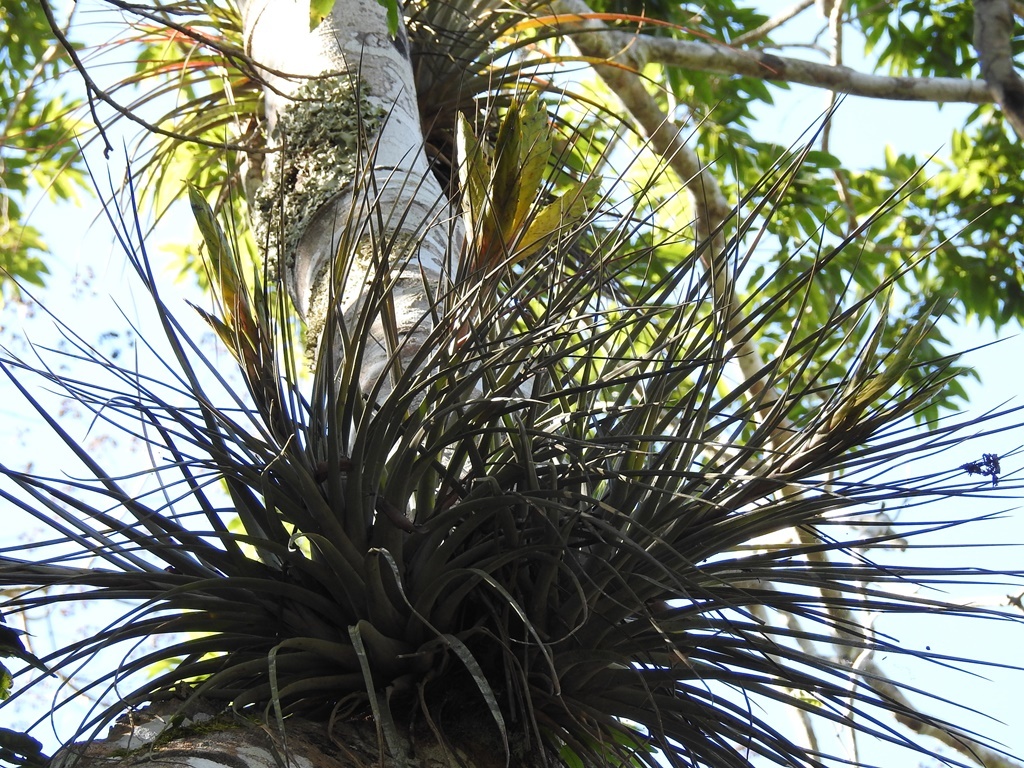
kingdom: Plantae
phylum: Tracheophyta
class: Liliopsida
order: Poales
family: Bromeliaceae
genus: Tillandsia
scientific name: Tillandsia flavobracteata
